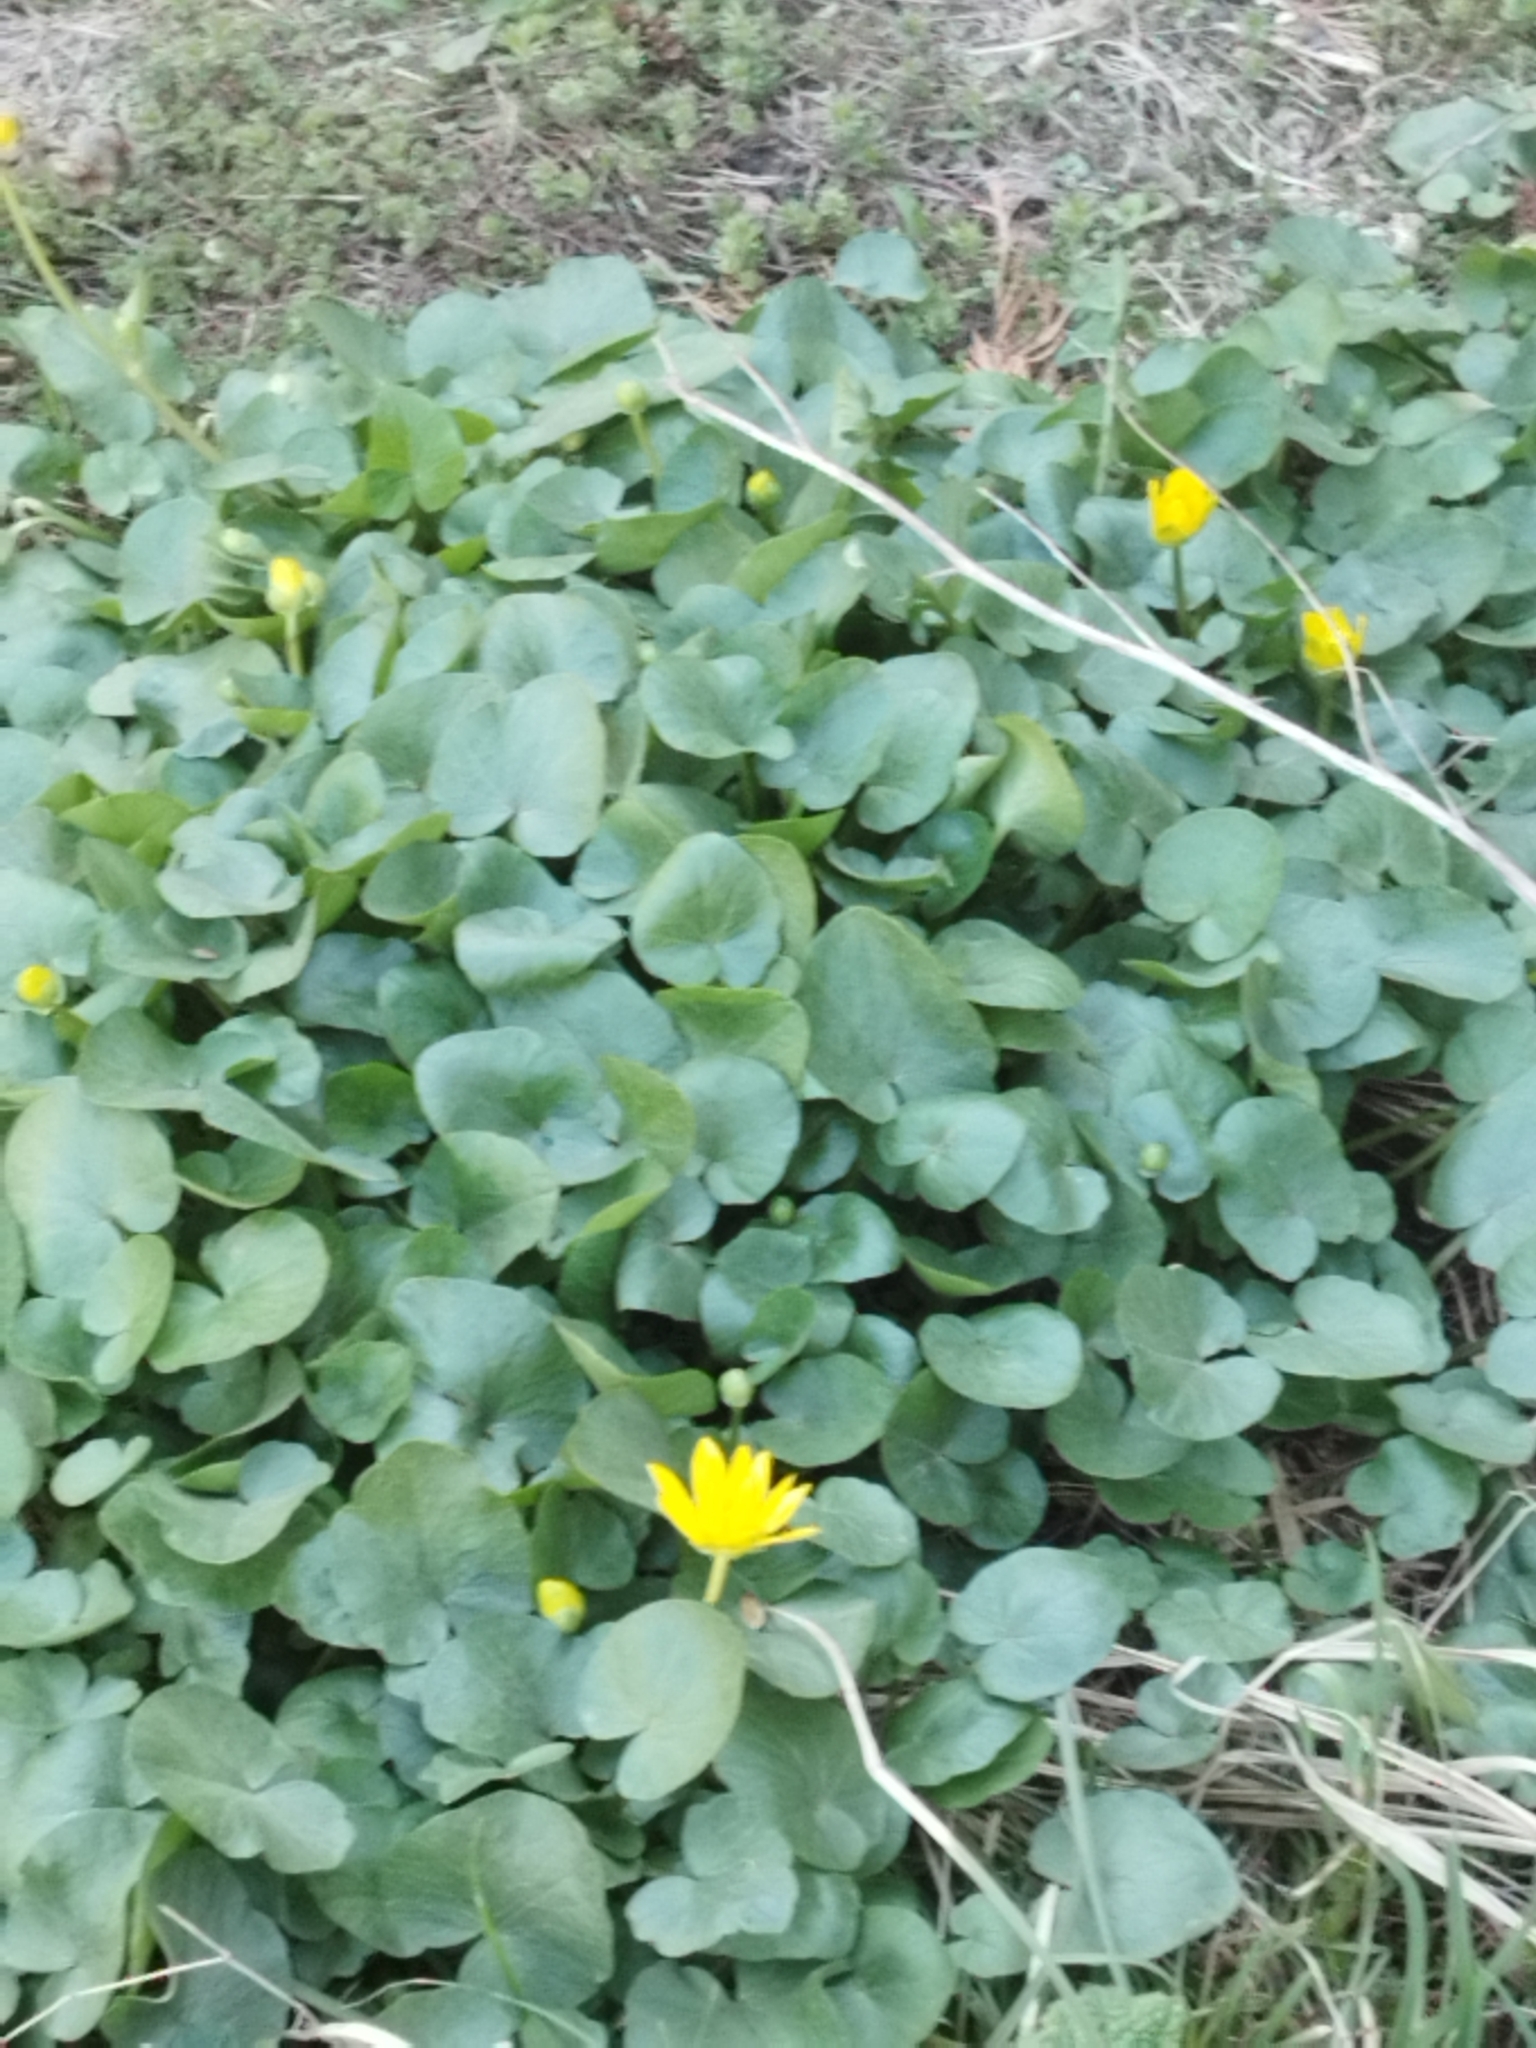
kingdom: Plantae
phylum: Tracheophyta
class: Magnoliopsida
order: Ranunculales
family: Ranunculaceae
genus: Ficaria
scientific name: Ficaria verna
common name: Lesser celandine
